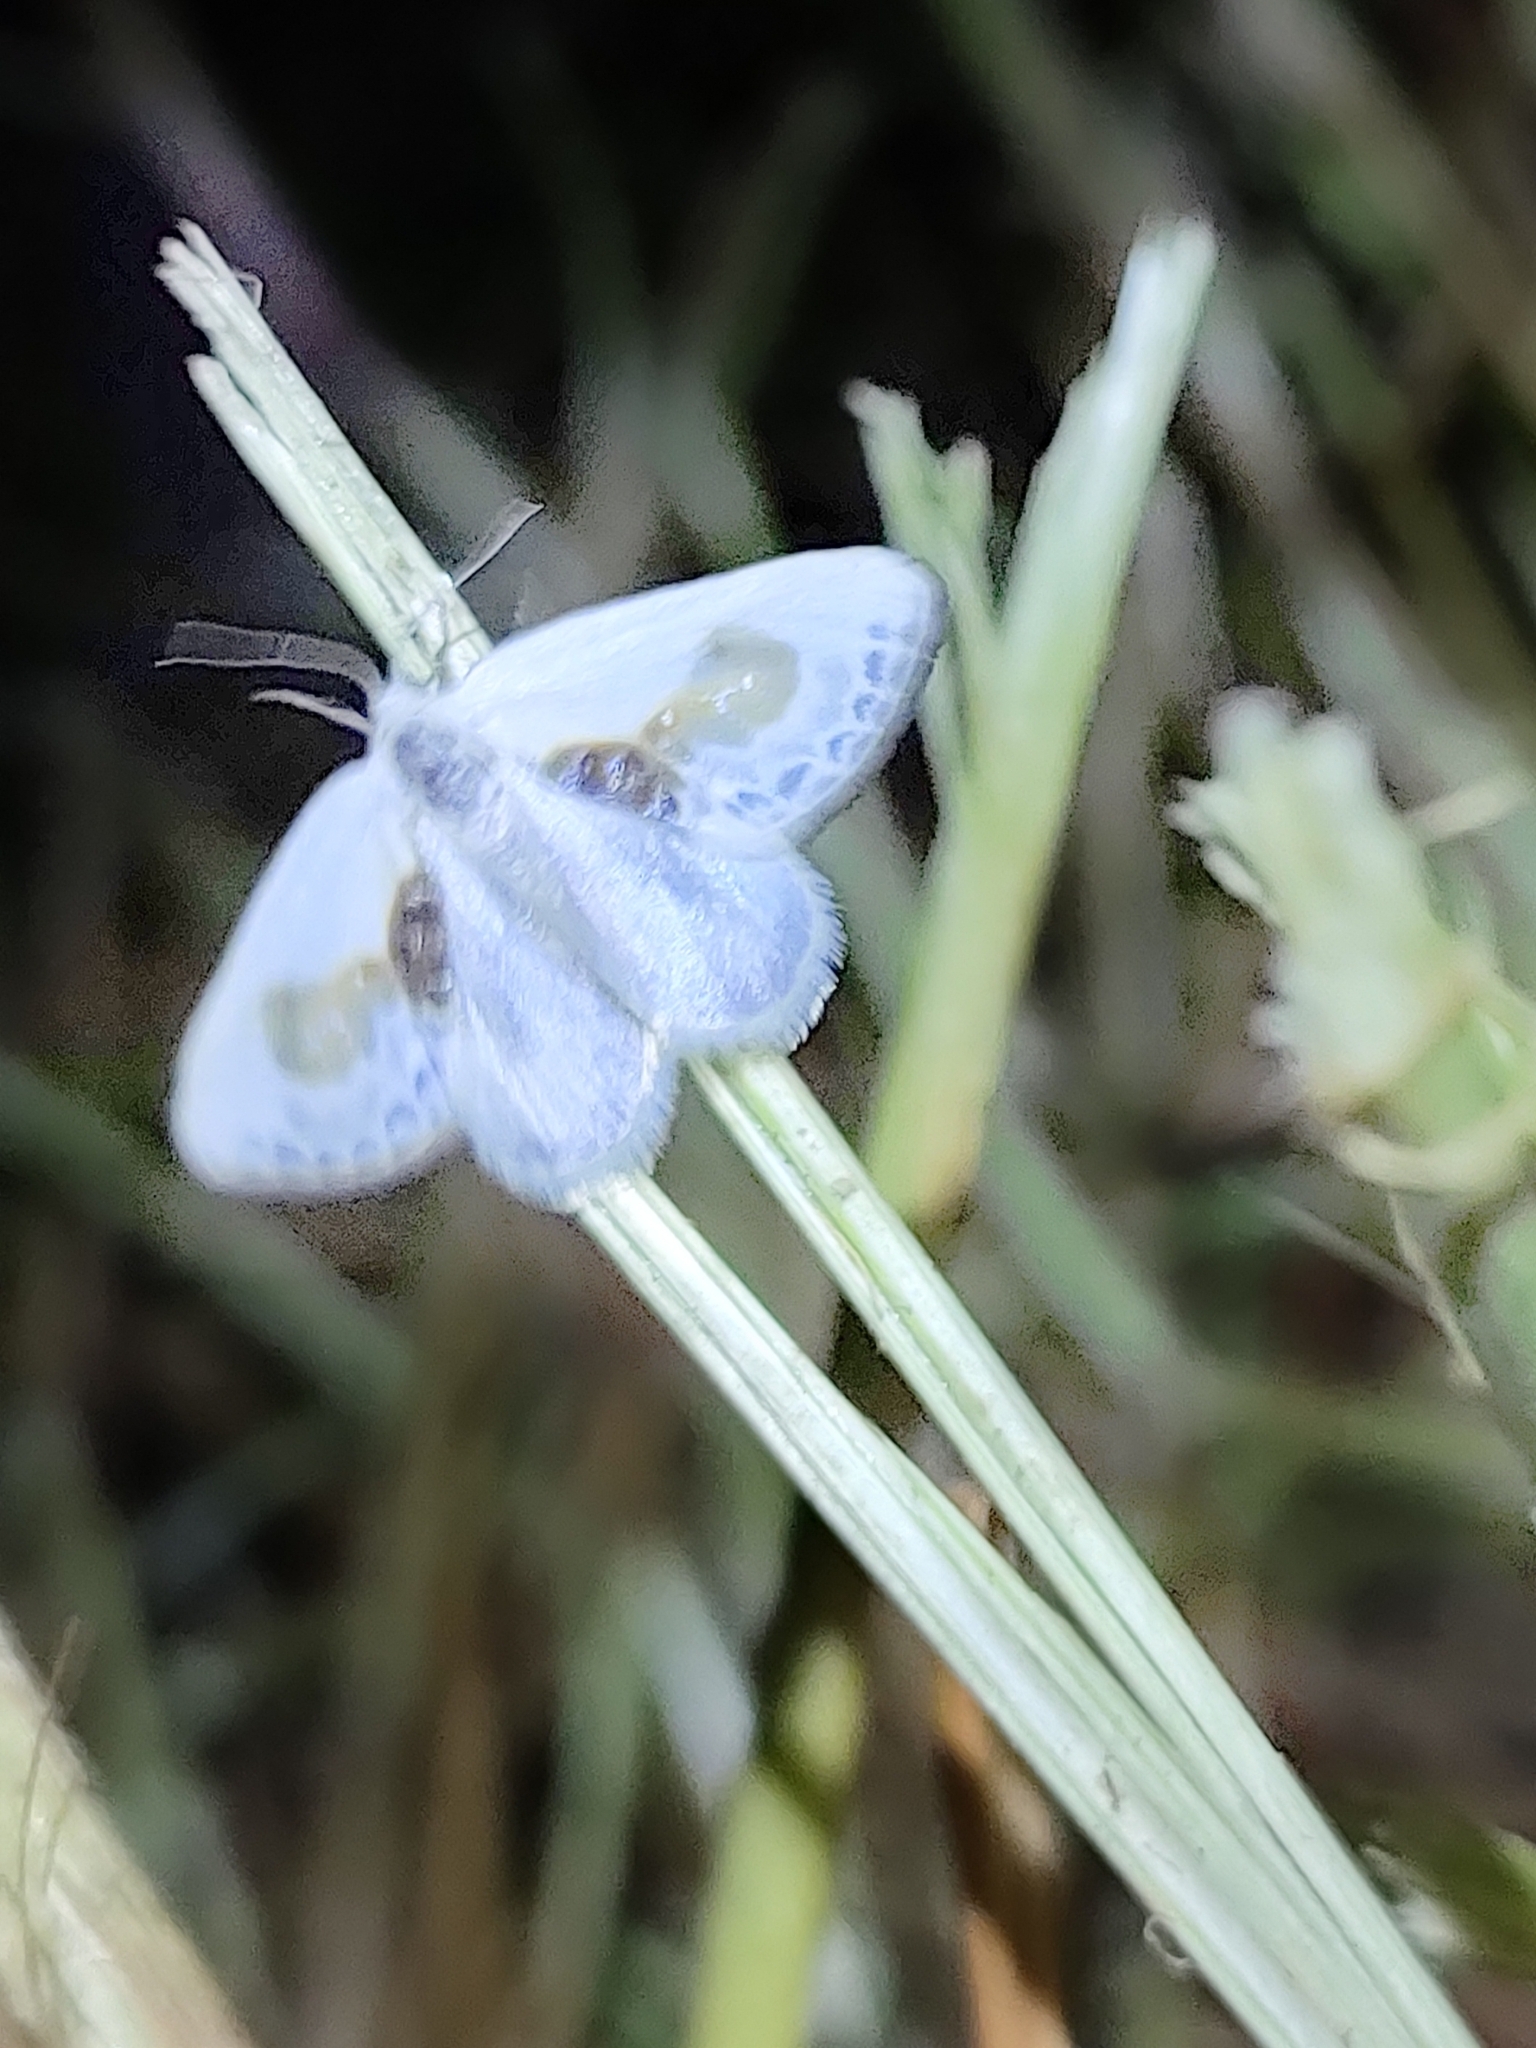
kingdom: Animalia
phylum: Arthropoda
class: Insecta
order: Lepidoptera
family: Drepanidae
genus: Cilix
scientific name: Cilix glaucata
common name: Chinese character
